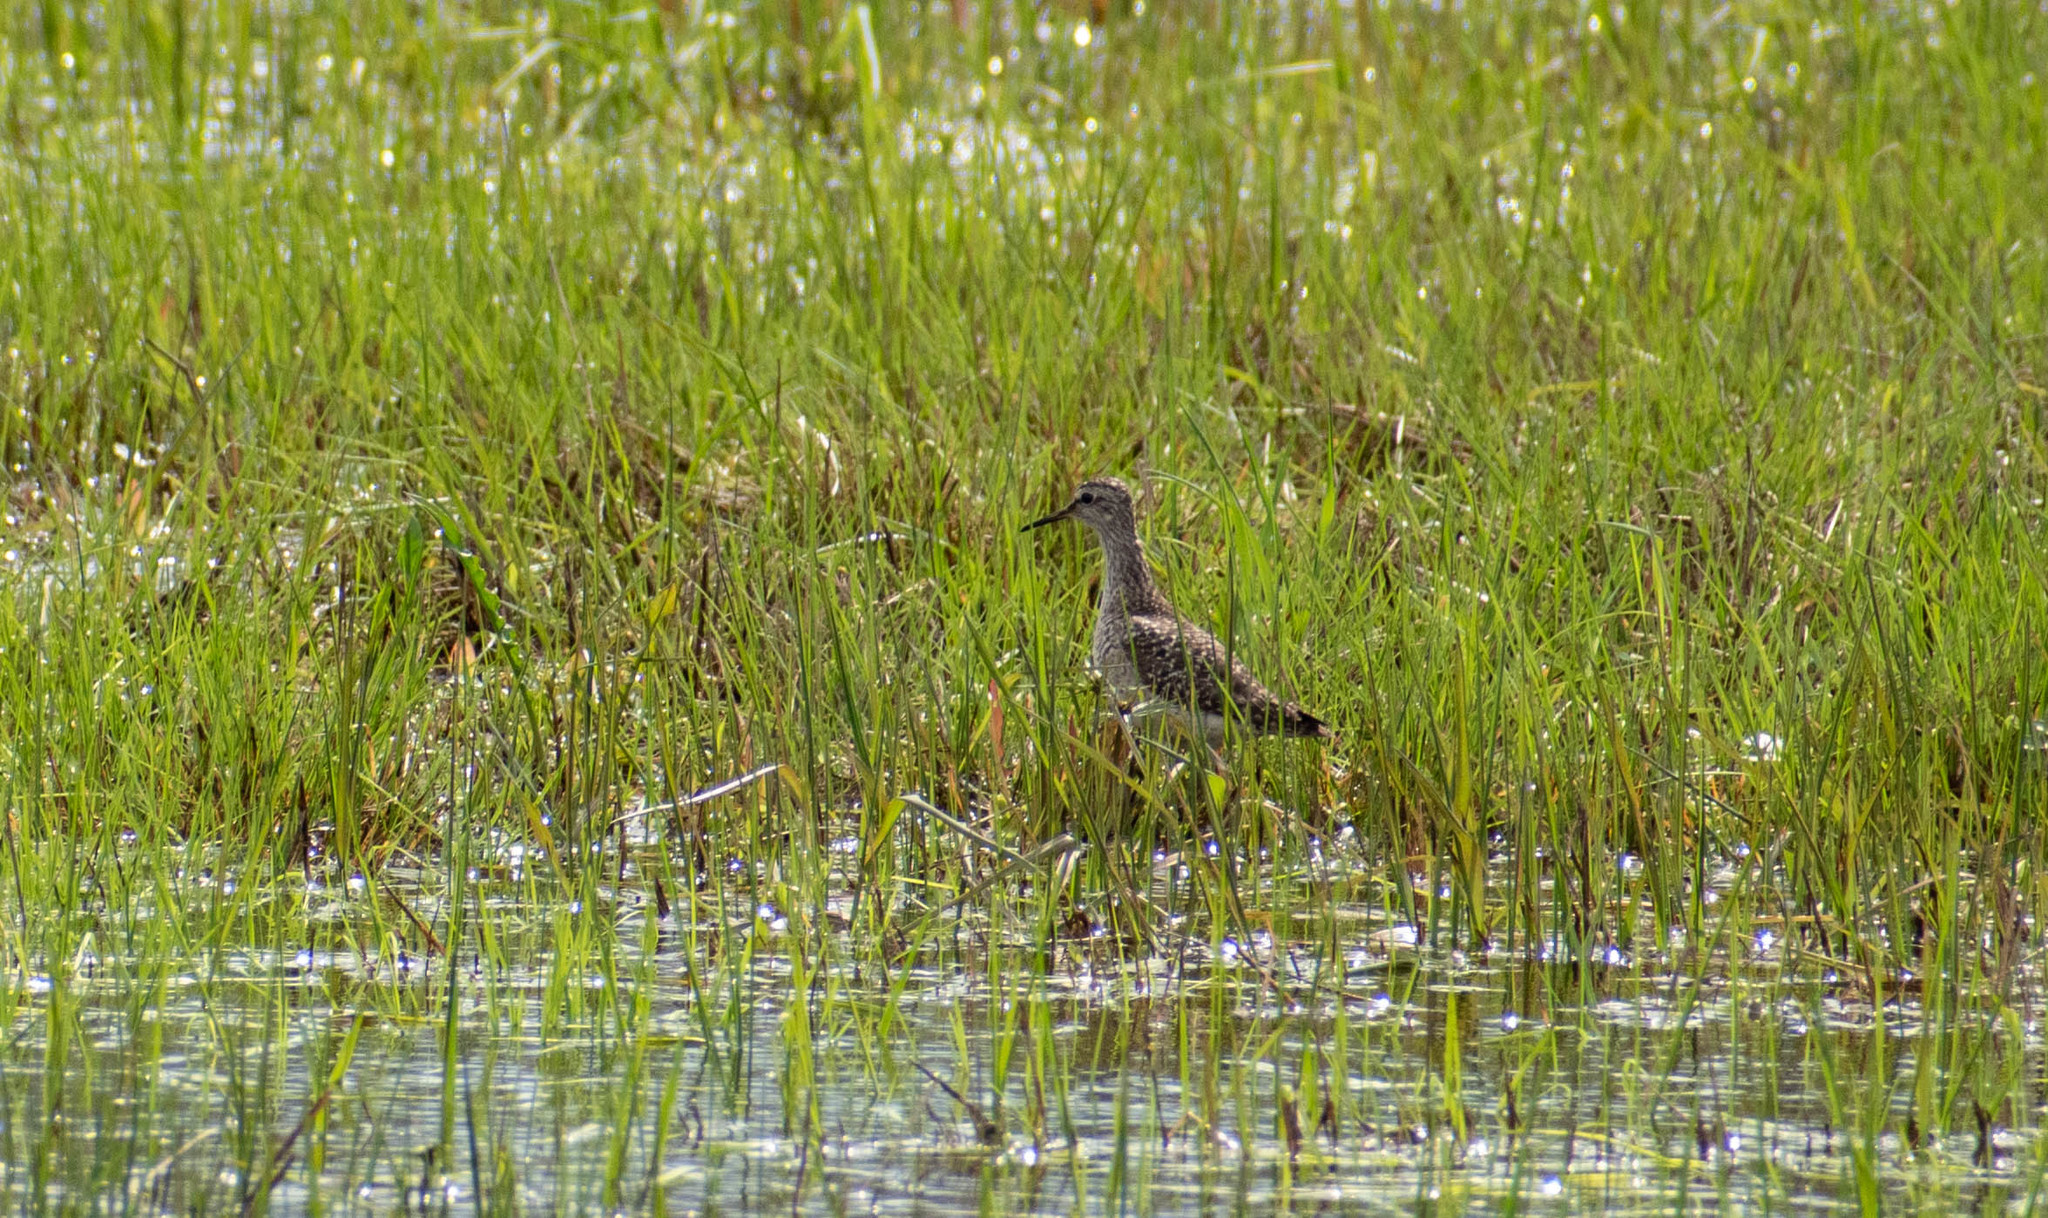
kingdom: Animalia
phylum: Chordata
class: Aves
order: Charadriiformes
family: Scolopacidae
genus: Tringa
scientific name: Tringa glareola
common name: Wood sandpiper
